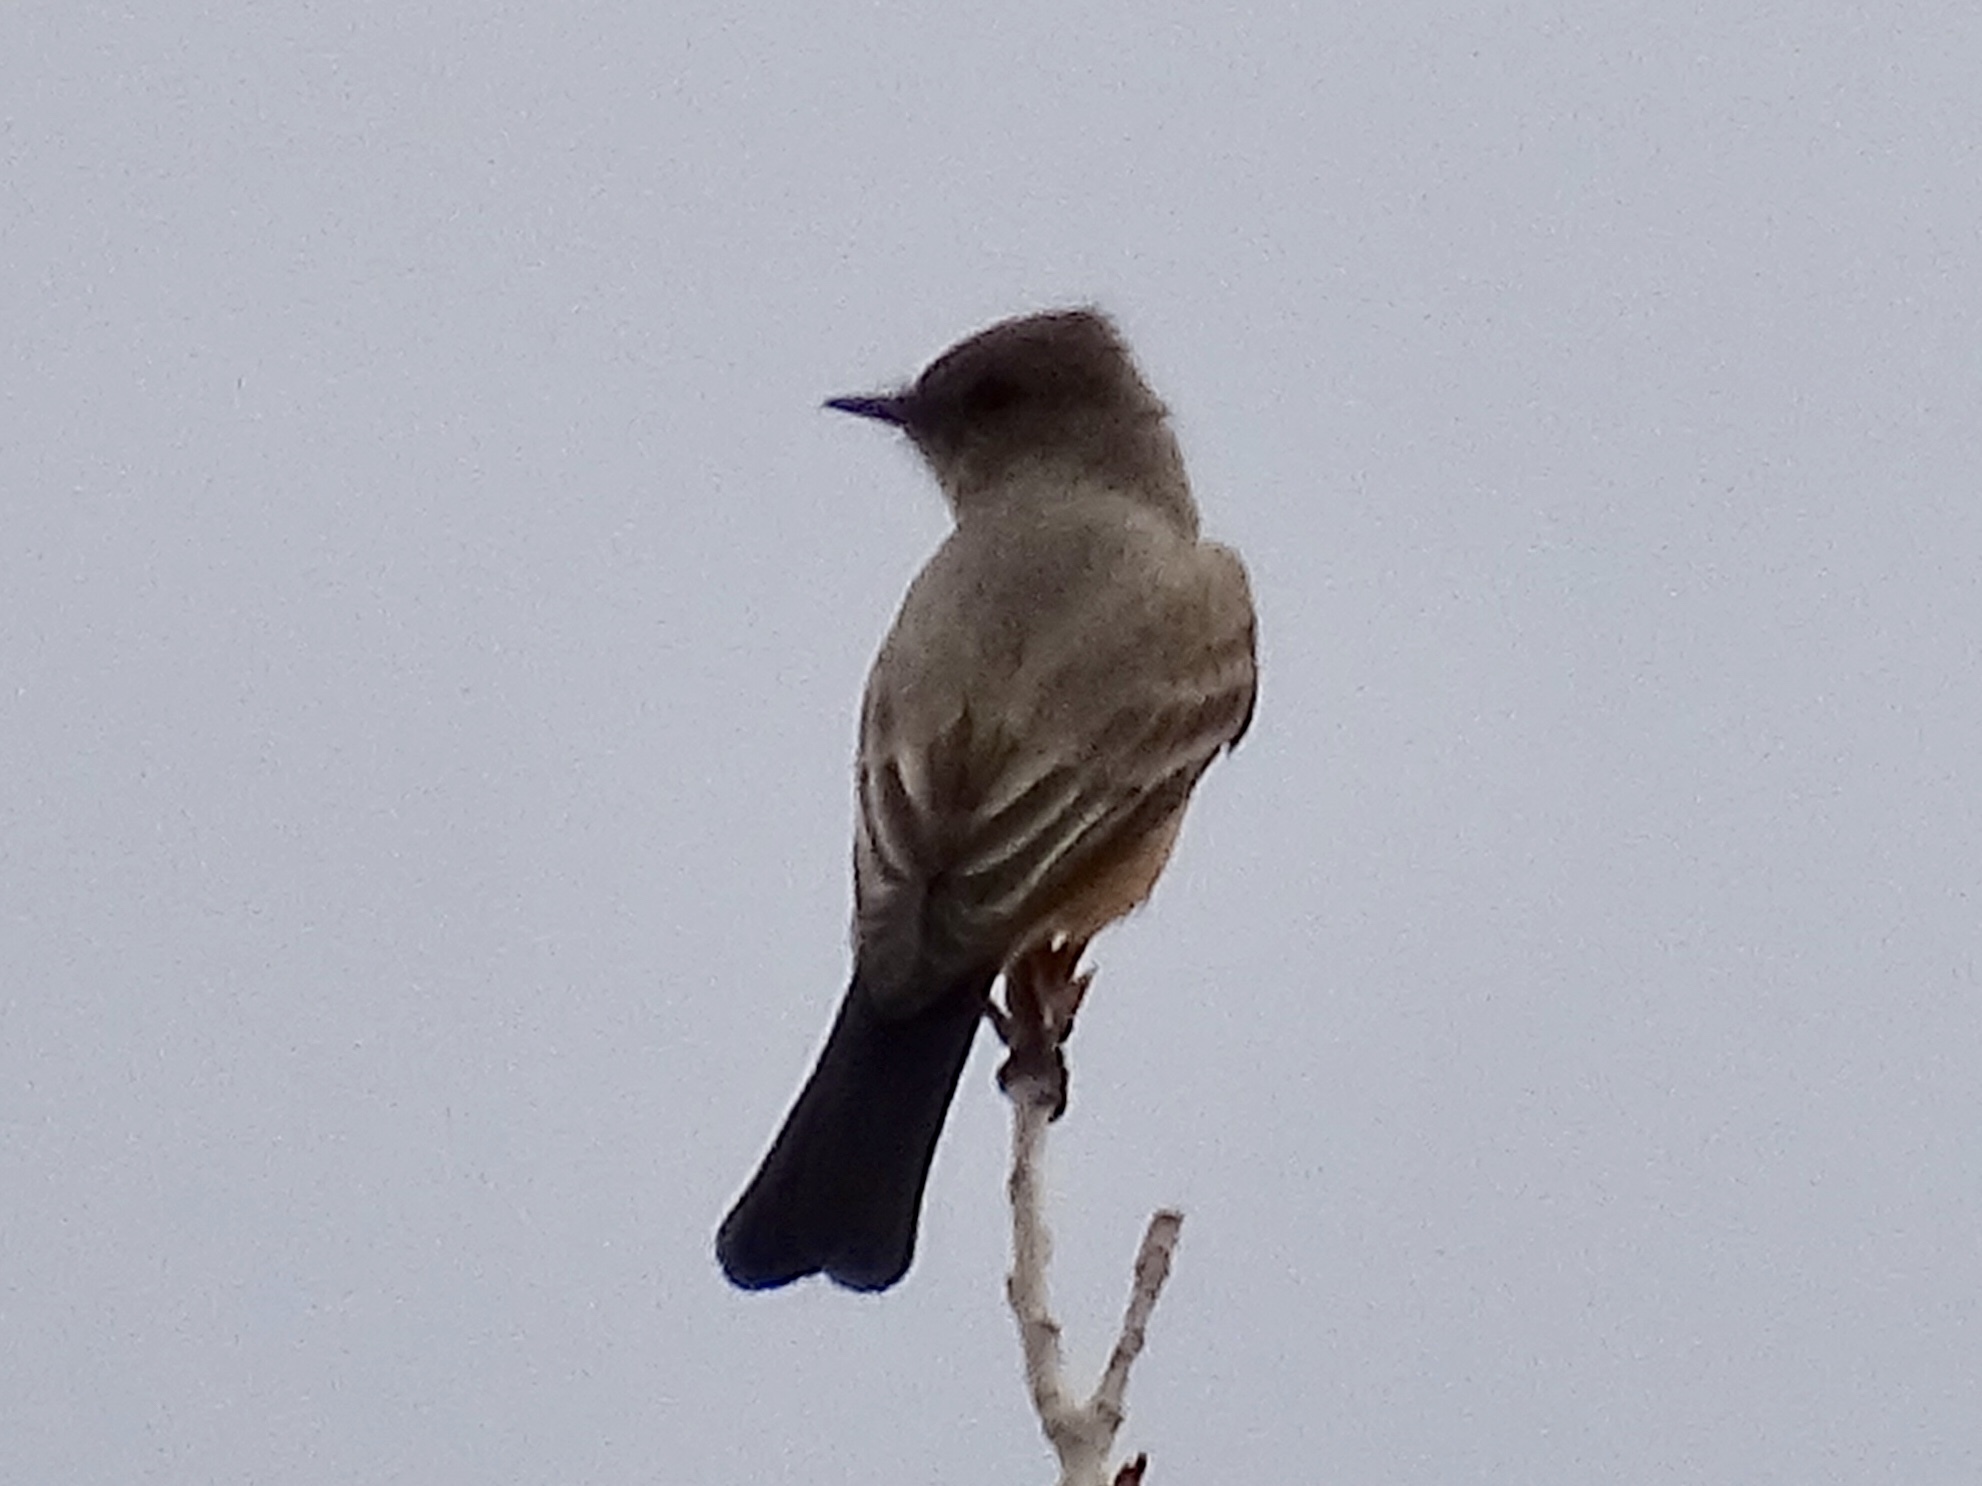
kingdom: Animalia
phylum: Chordata
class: Aves
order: Passeriformes
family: Tyrannidae
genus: Sayornis
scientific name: Sayornis saya
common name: Say's phoebe
